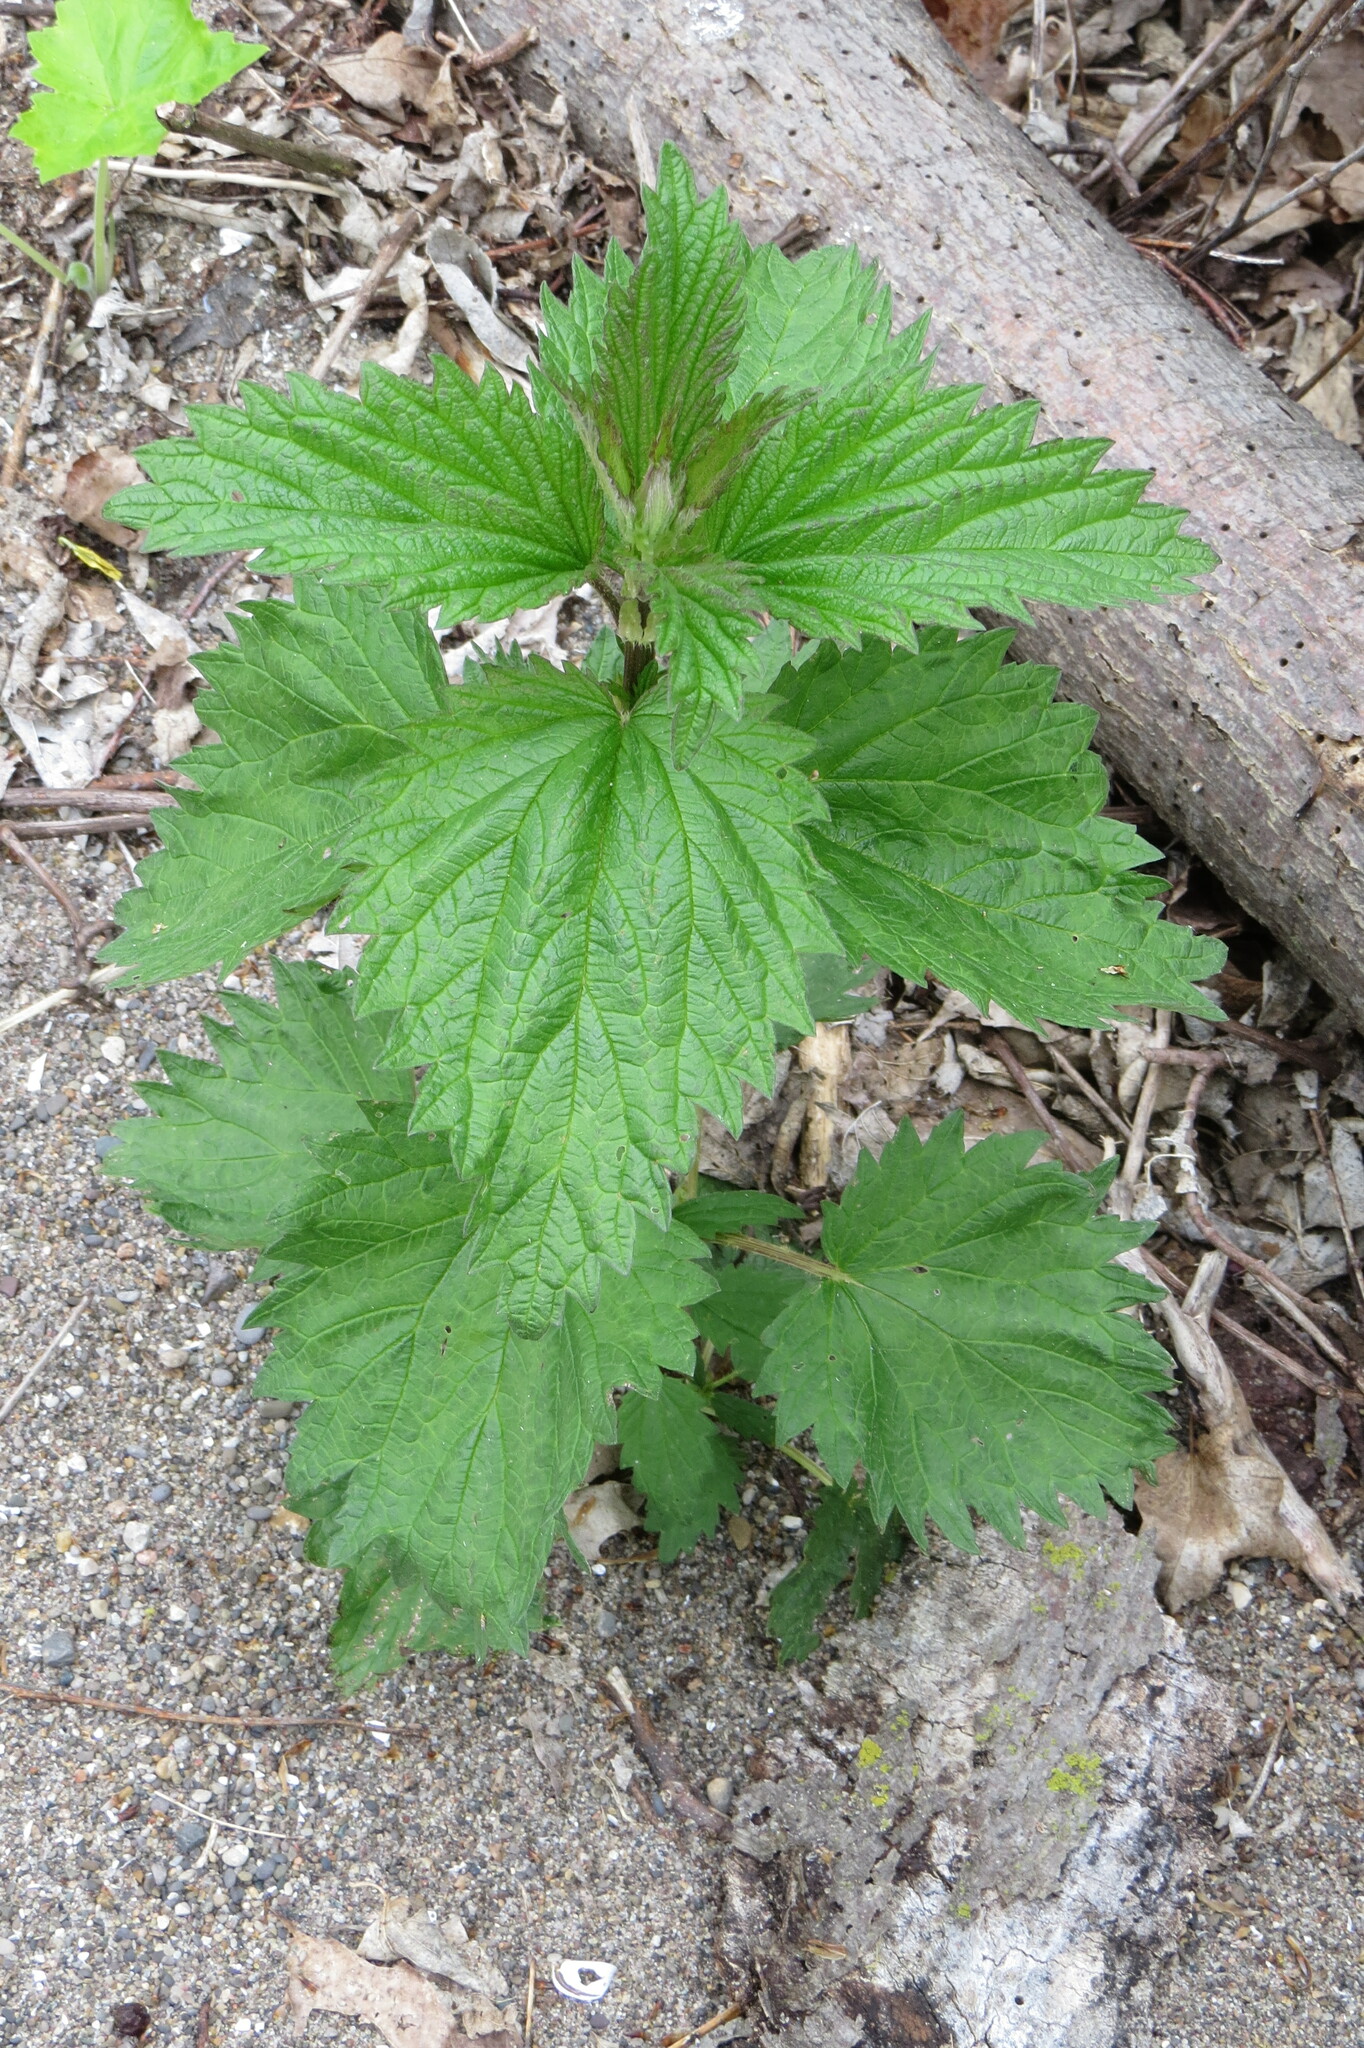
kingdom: Plantae
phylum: Tracheophyta
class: Magnoliopsida
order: Rosales
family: Urticaceae
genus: Urtica
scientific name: Urtica dioica
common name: Common nettle
